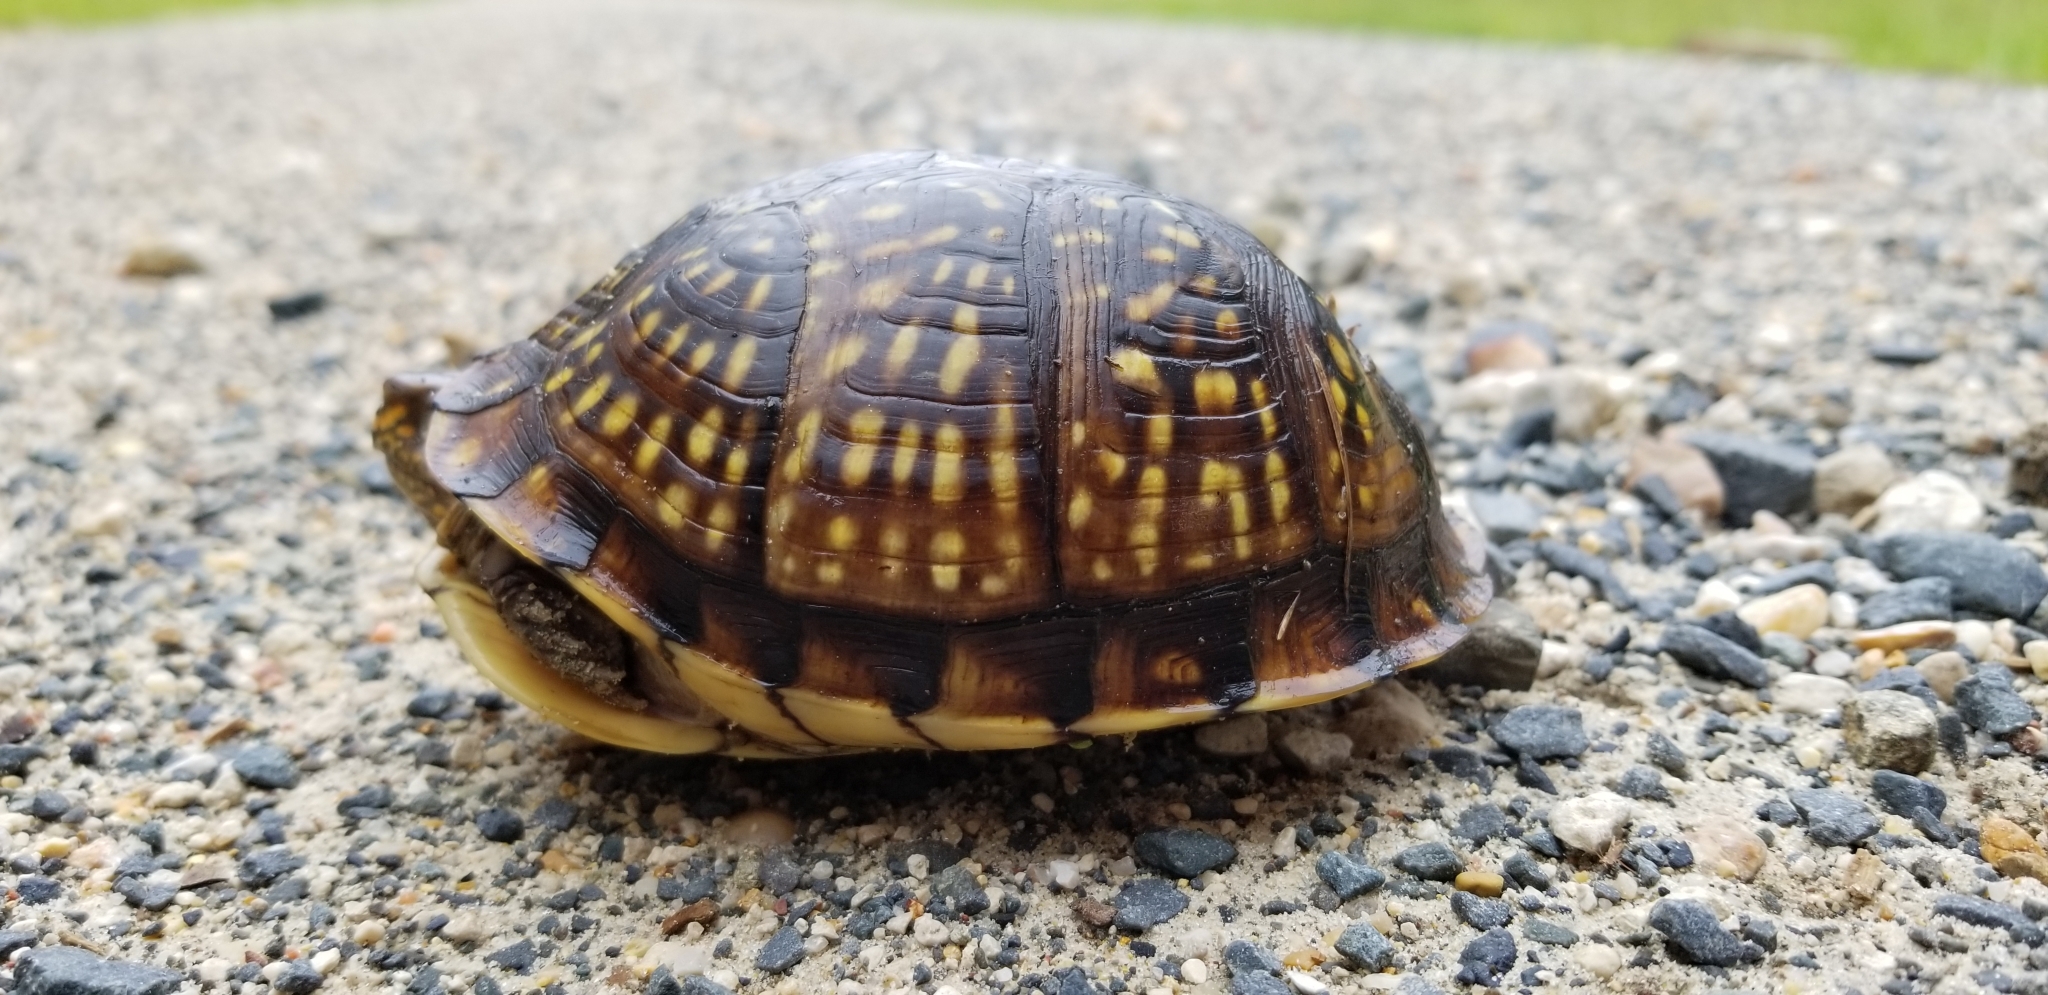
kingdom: Animalia
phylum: Chordata
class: Testudines
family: Emydidae
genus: Terrapene
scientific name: Terrapene carolina
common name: Common box turtle
